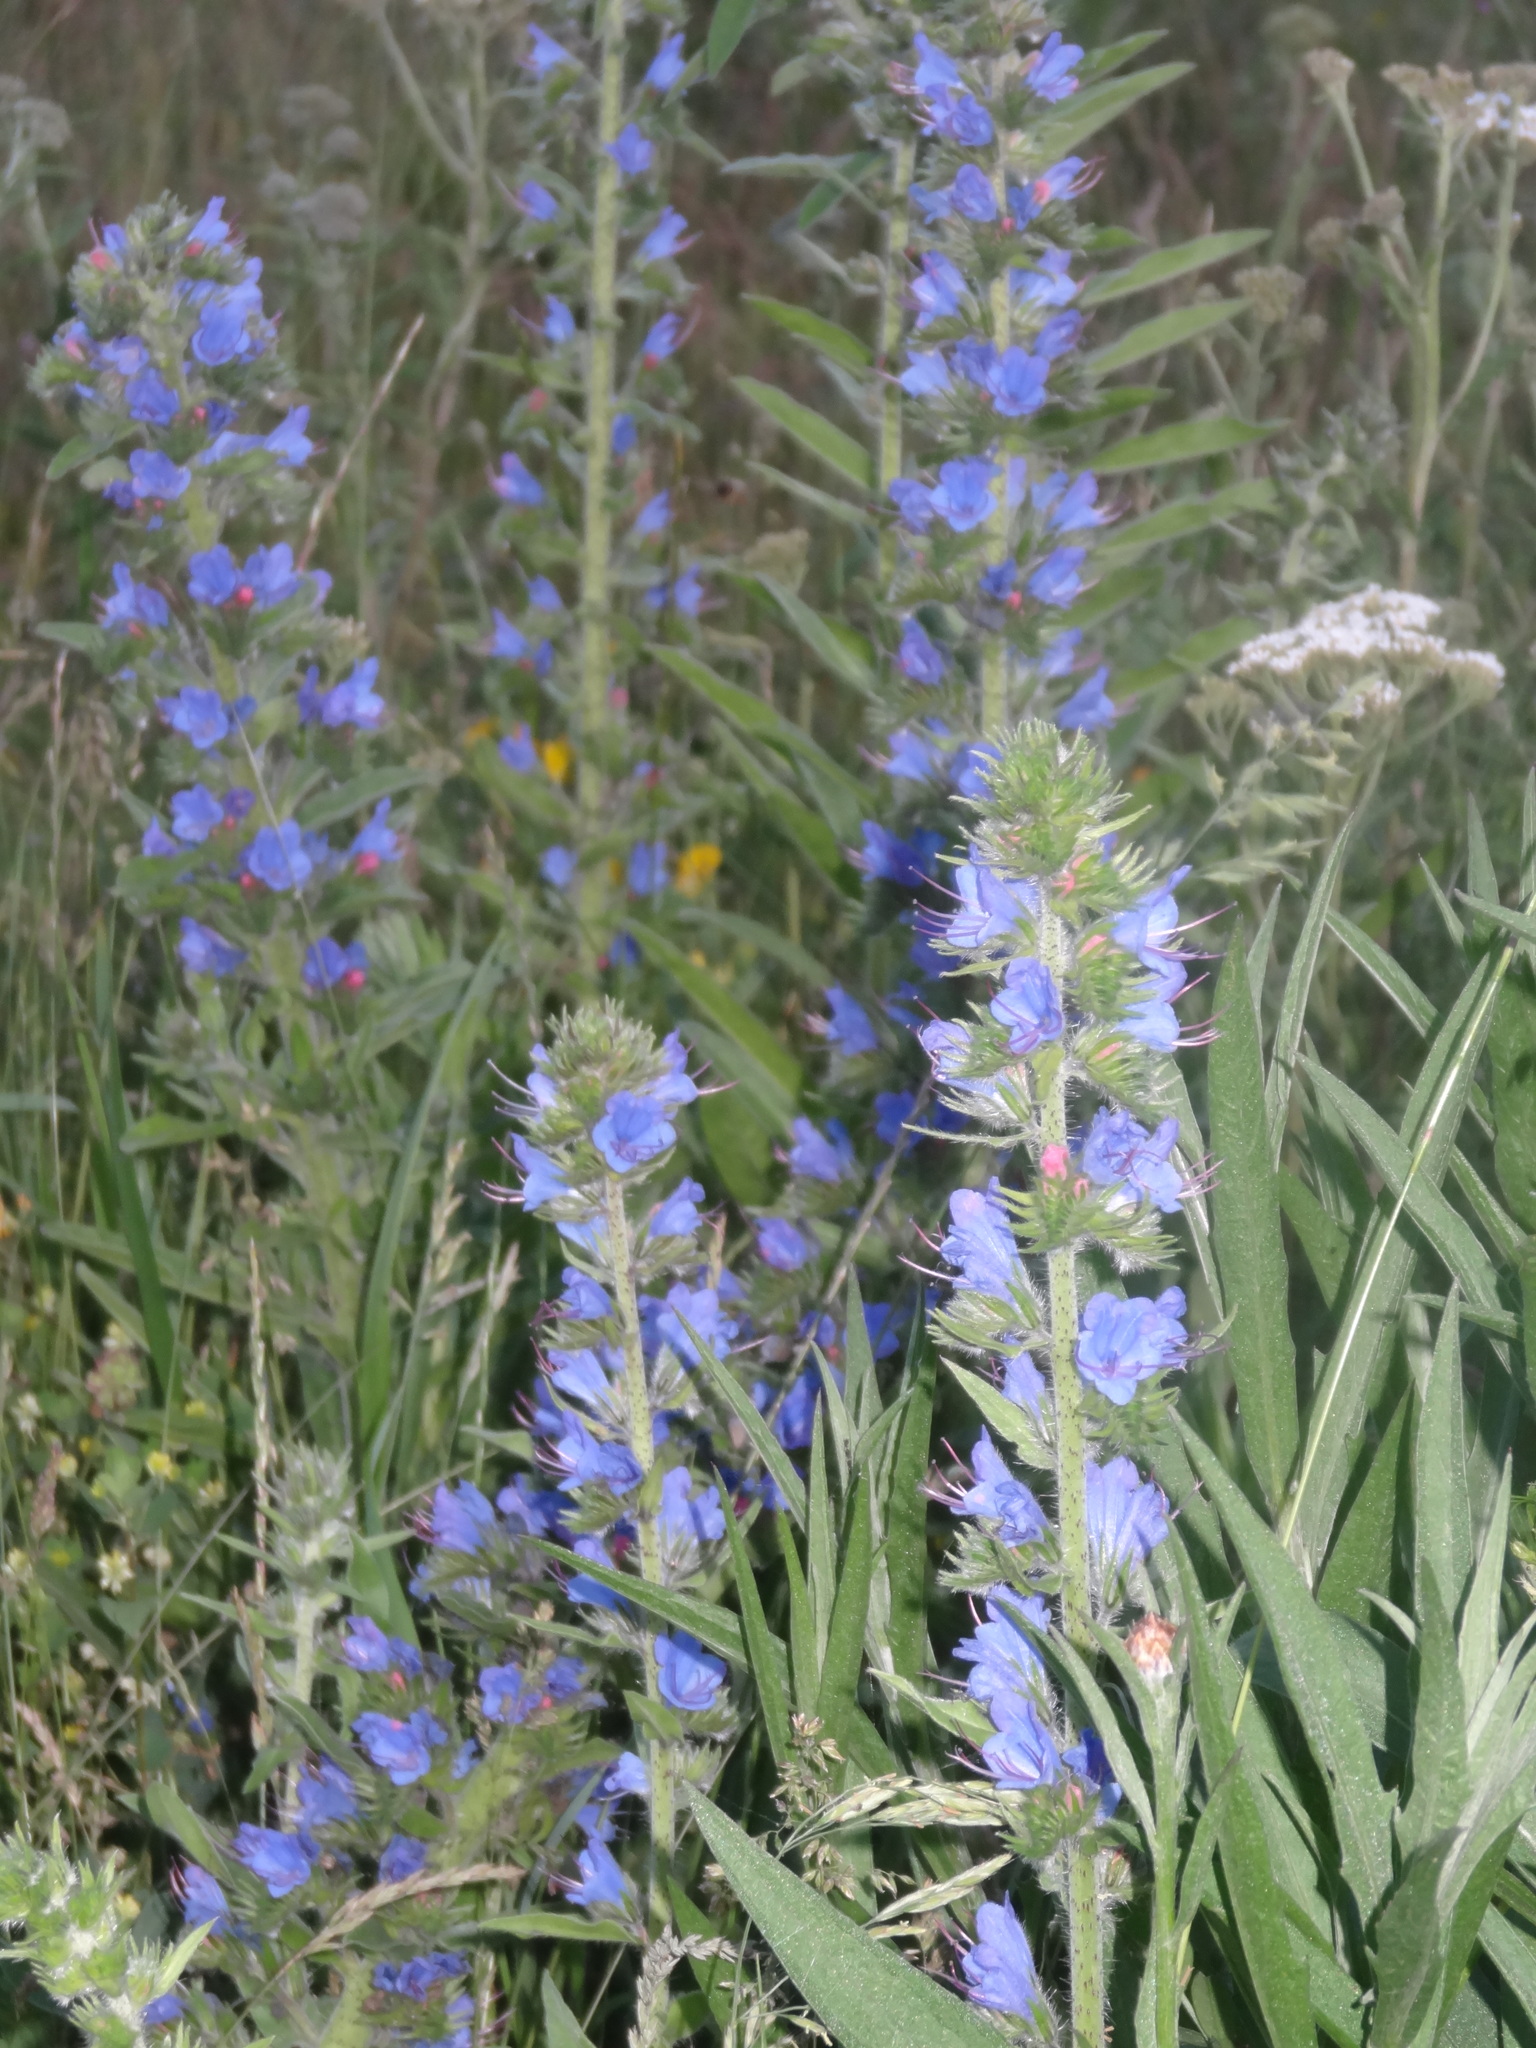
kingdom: Plantae
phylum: Tracheophyta
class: Magnoliopsida
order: Boraginales
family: Boraginaceae
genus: Echium
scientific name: Echium vulgare
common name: Common viper's bugloss
